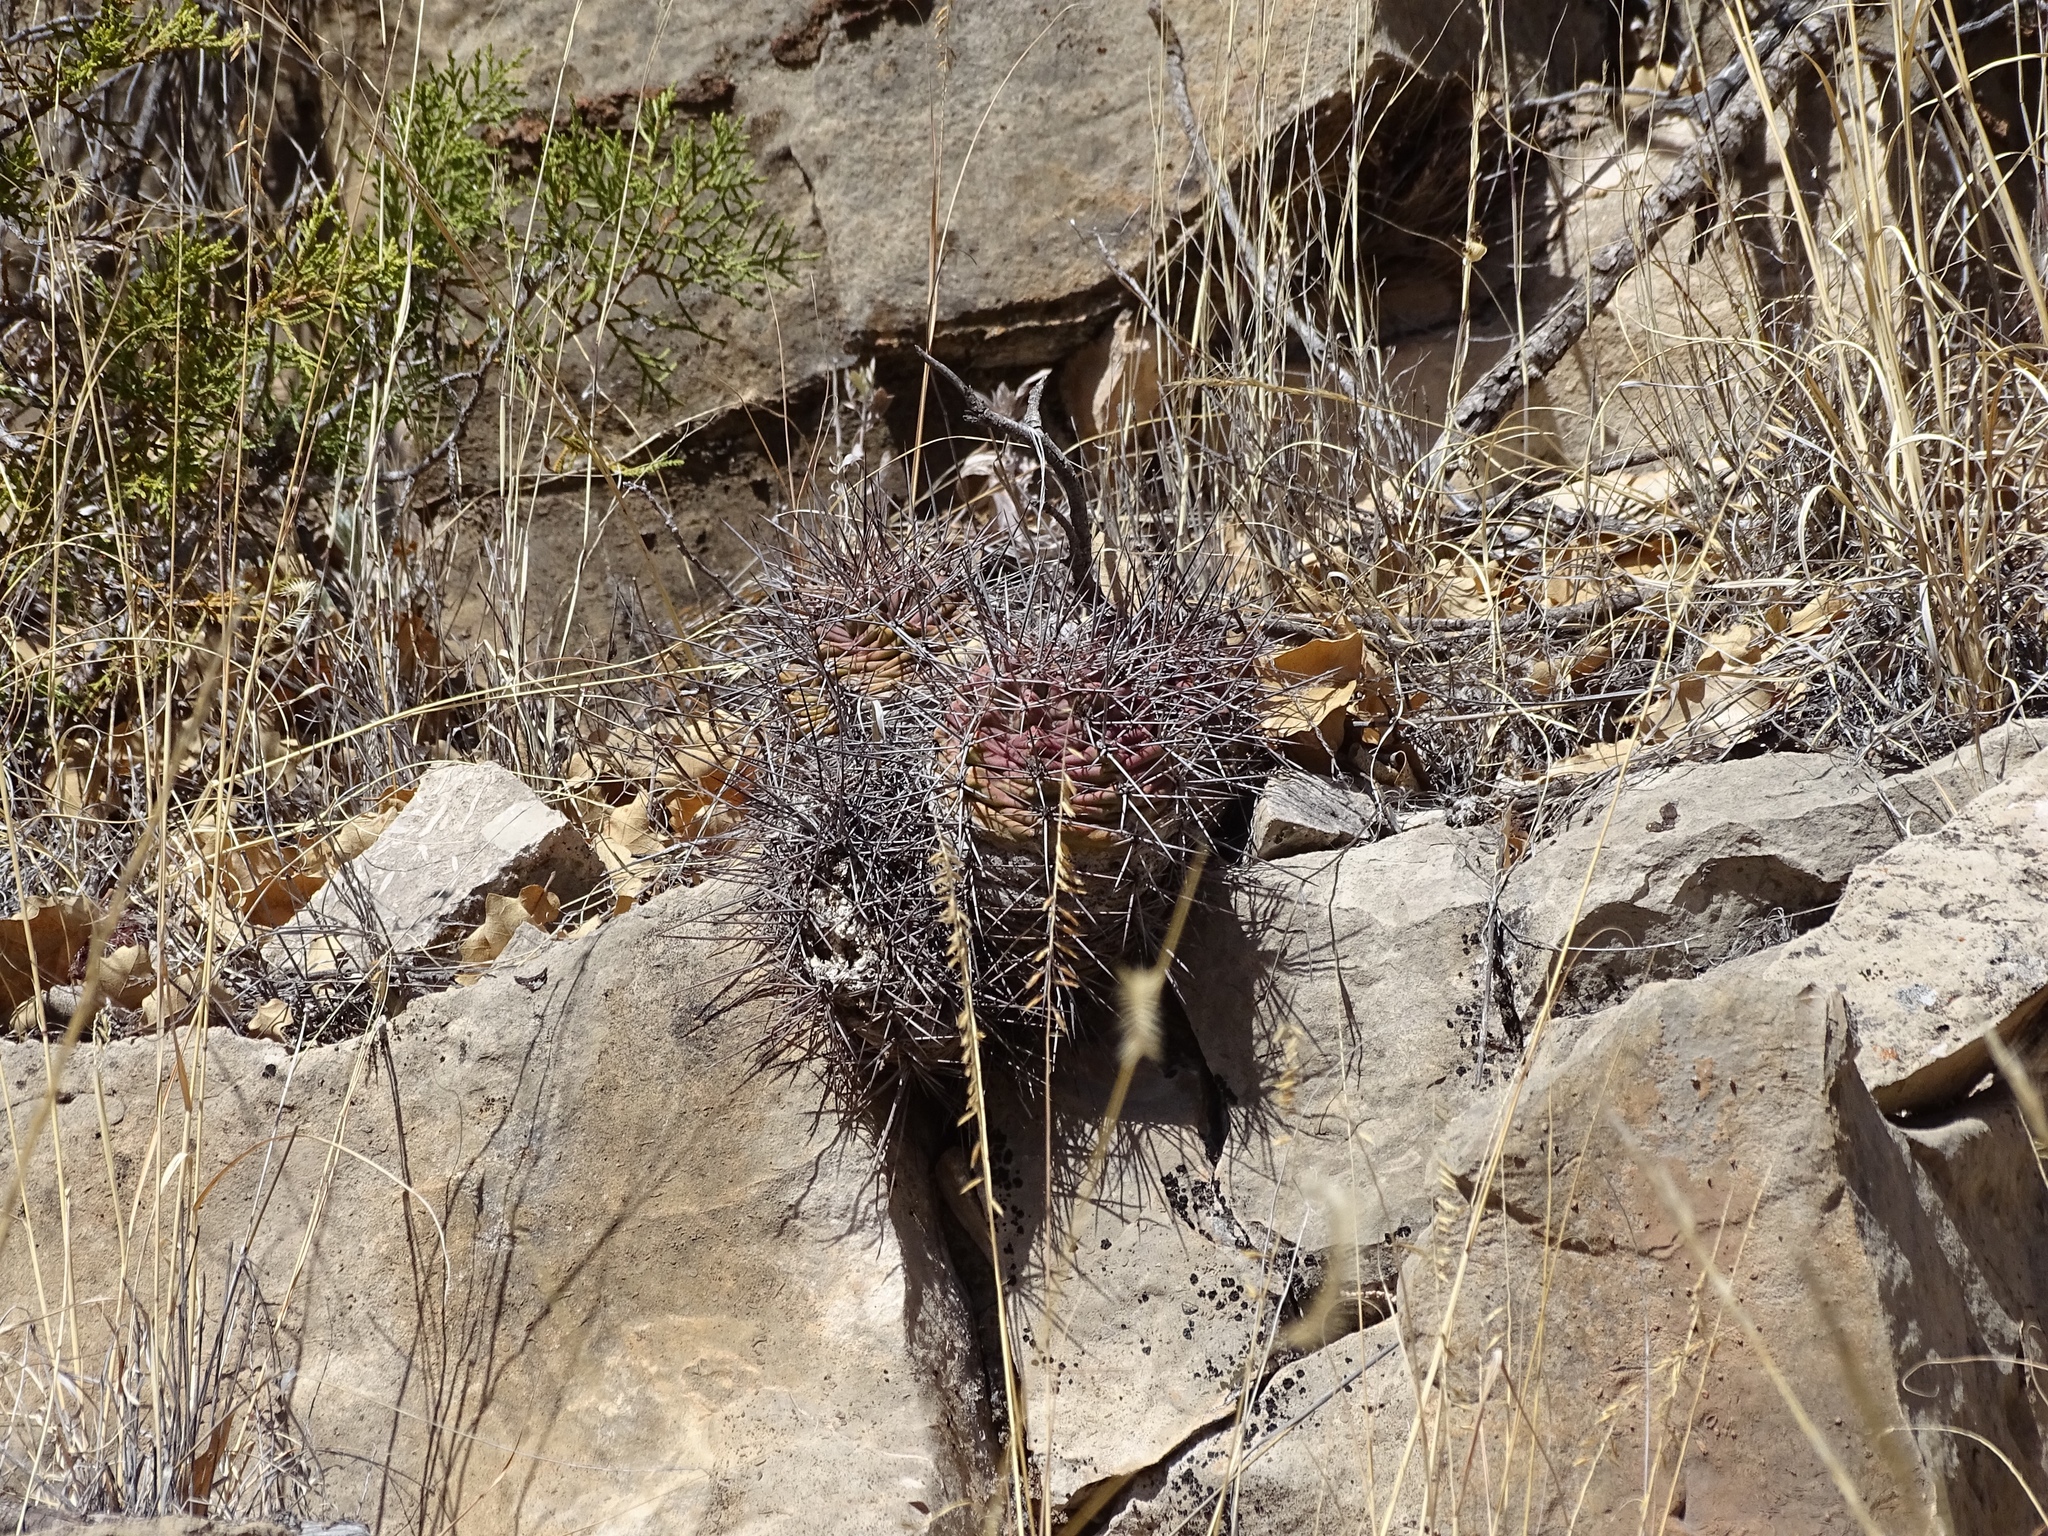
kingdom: Plantae
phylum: Tracheophyta
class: Magnoliopsida
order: Caryophyllales
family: Cactaceae
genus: Echinocereus
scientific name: Echinocereus coccineus
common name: Scarlet hedgehog cactus
